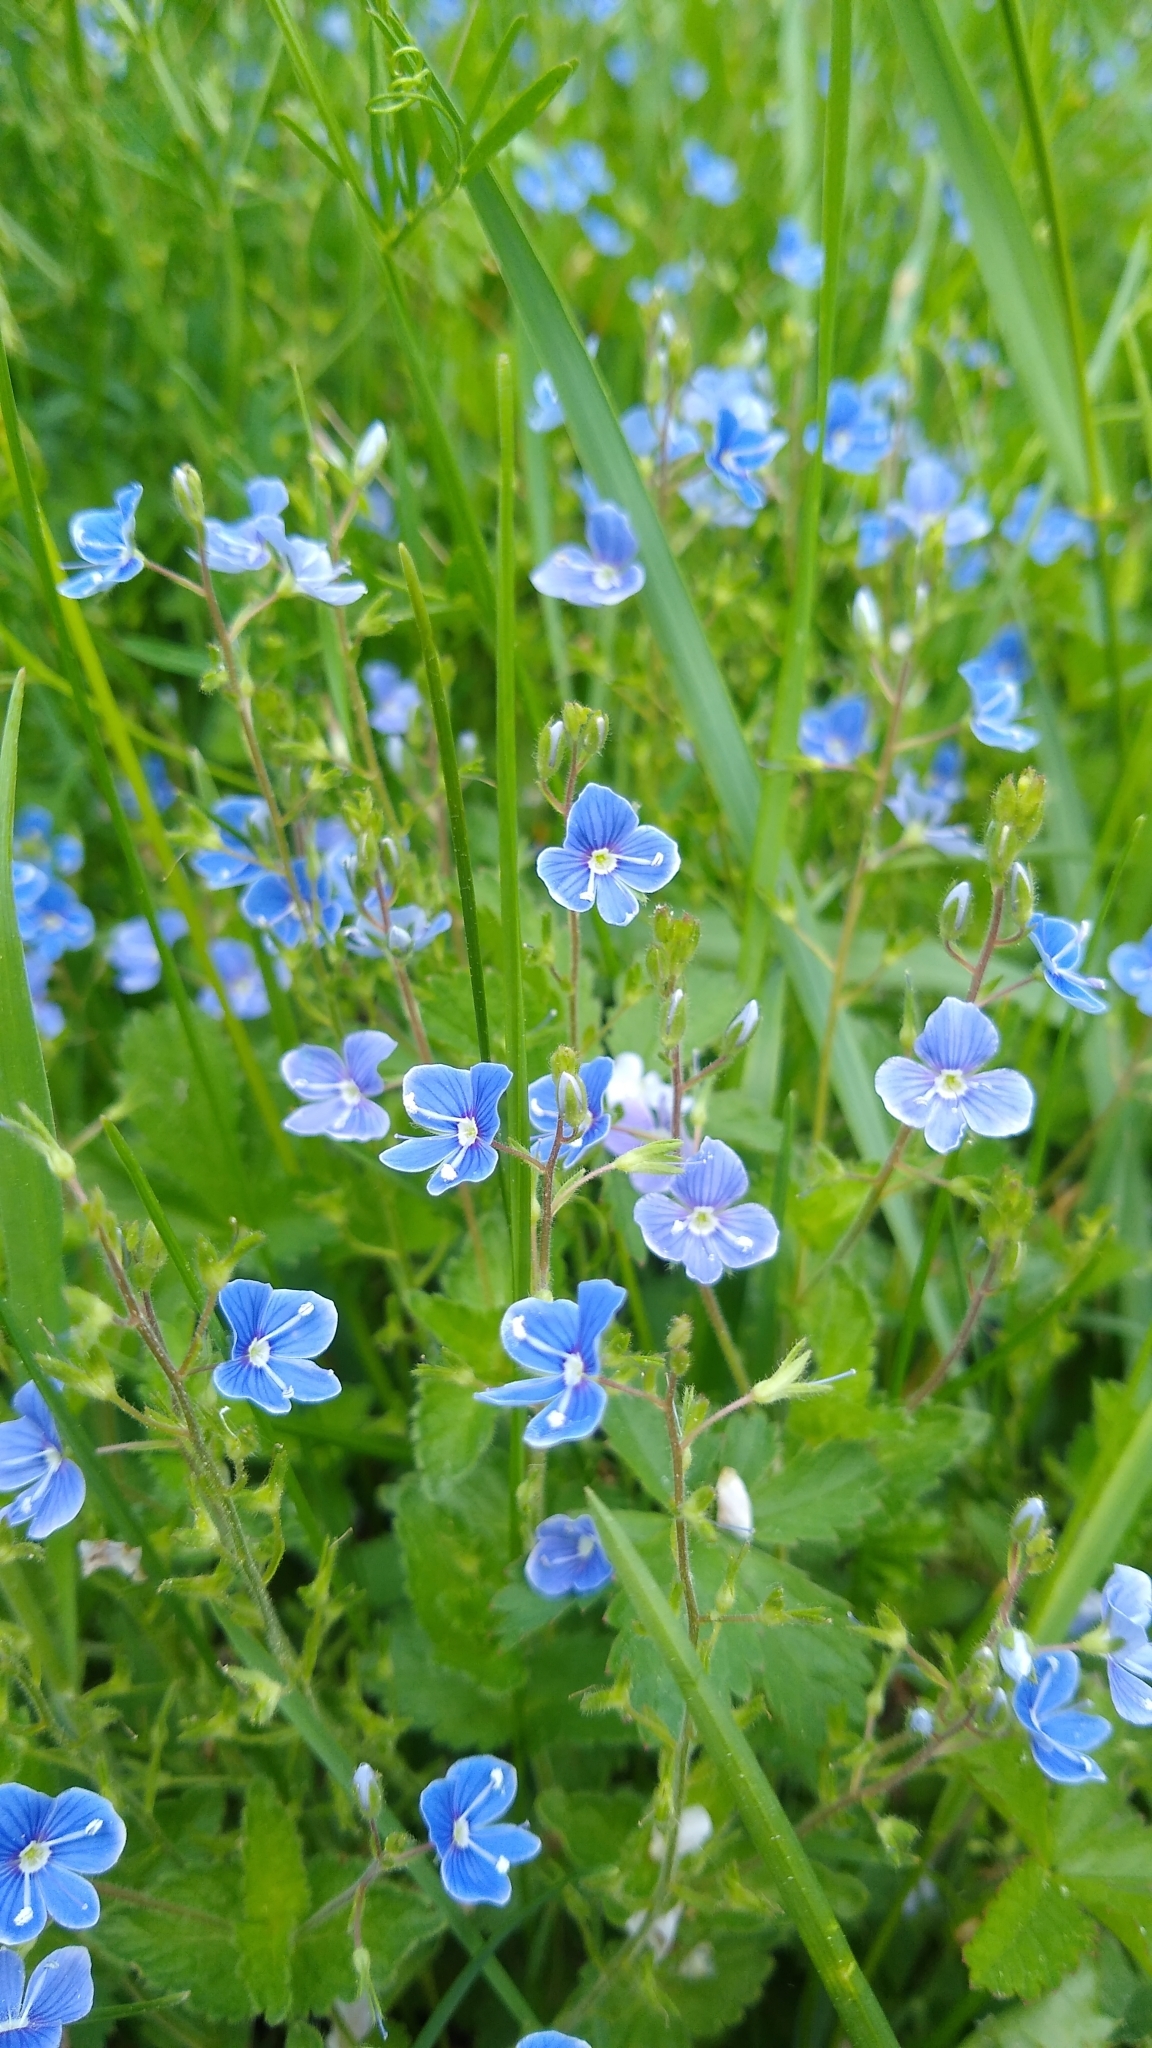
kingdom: Plantae
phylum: Tracheophyta
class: Magnoliopsida
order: Lamiales
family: Plantaginaceae
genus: Veronica
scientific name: Veronica chamaedrys
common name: Germander speedwell
